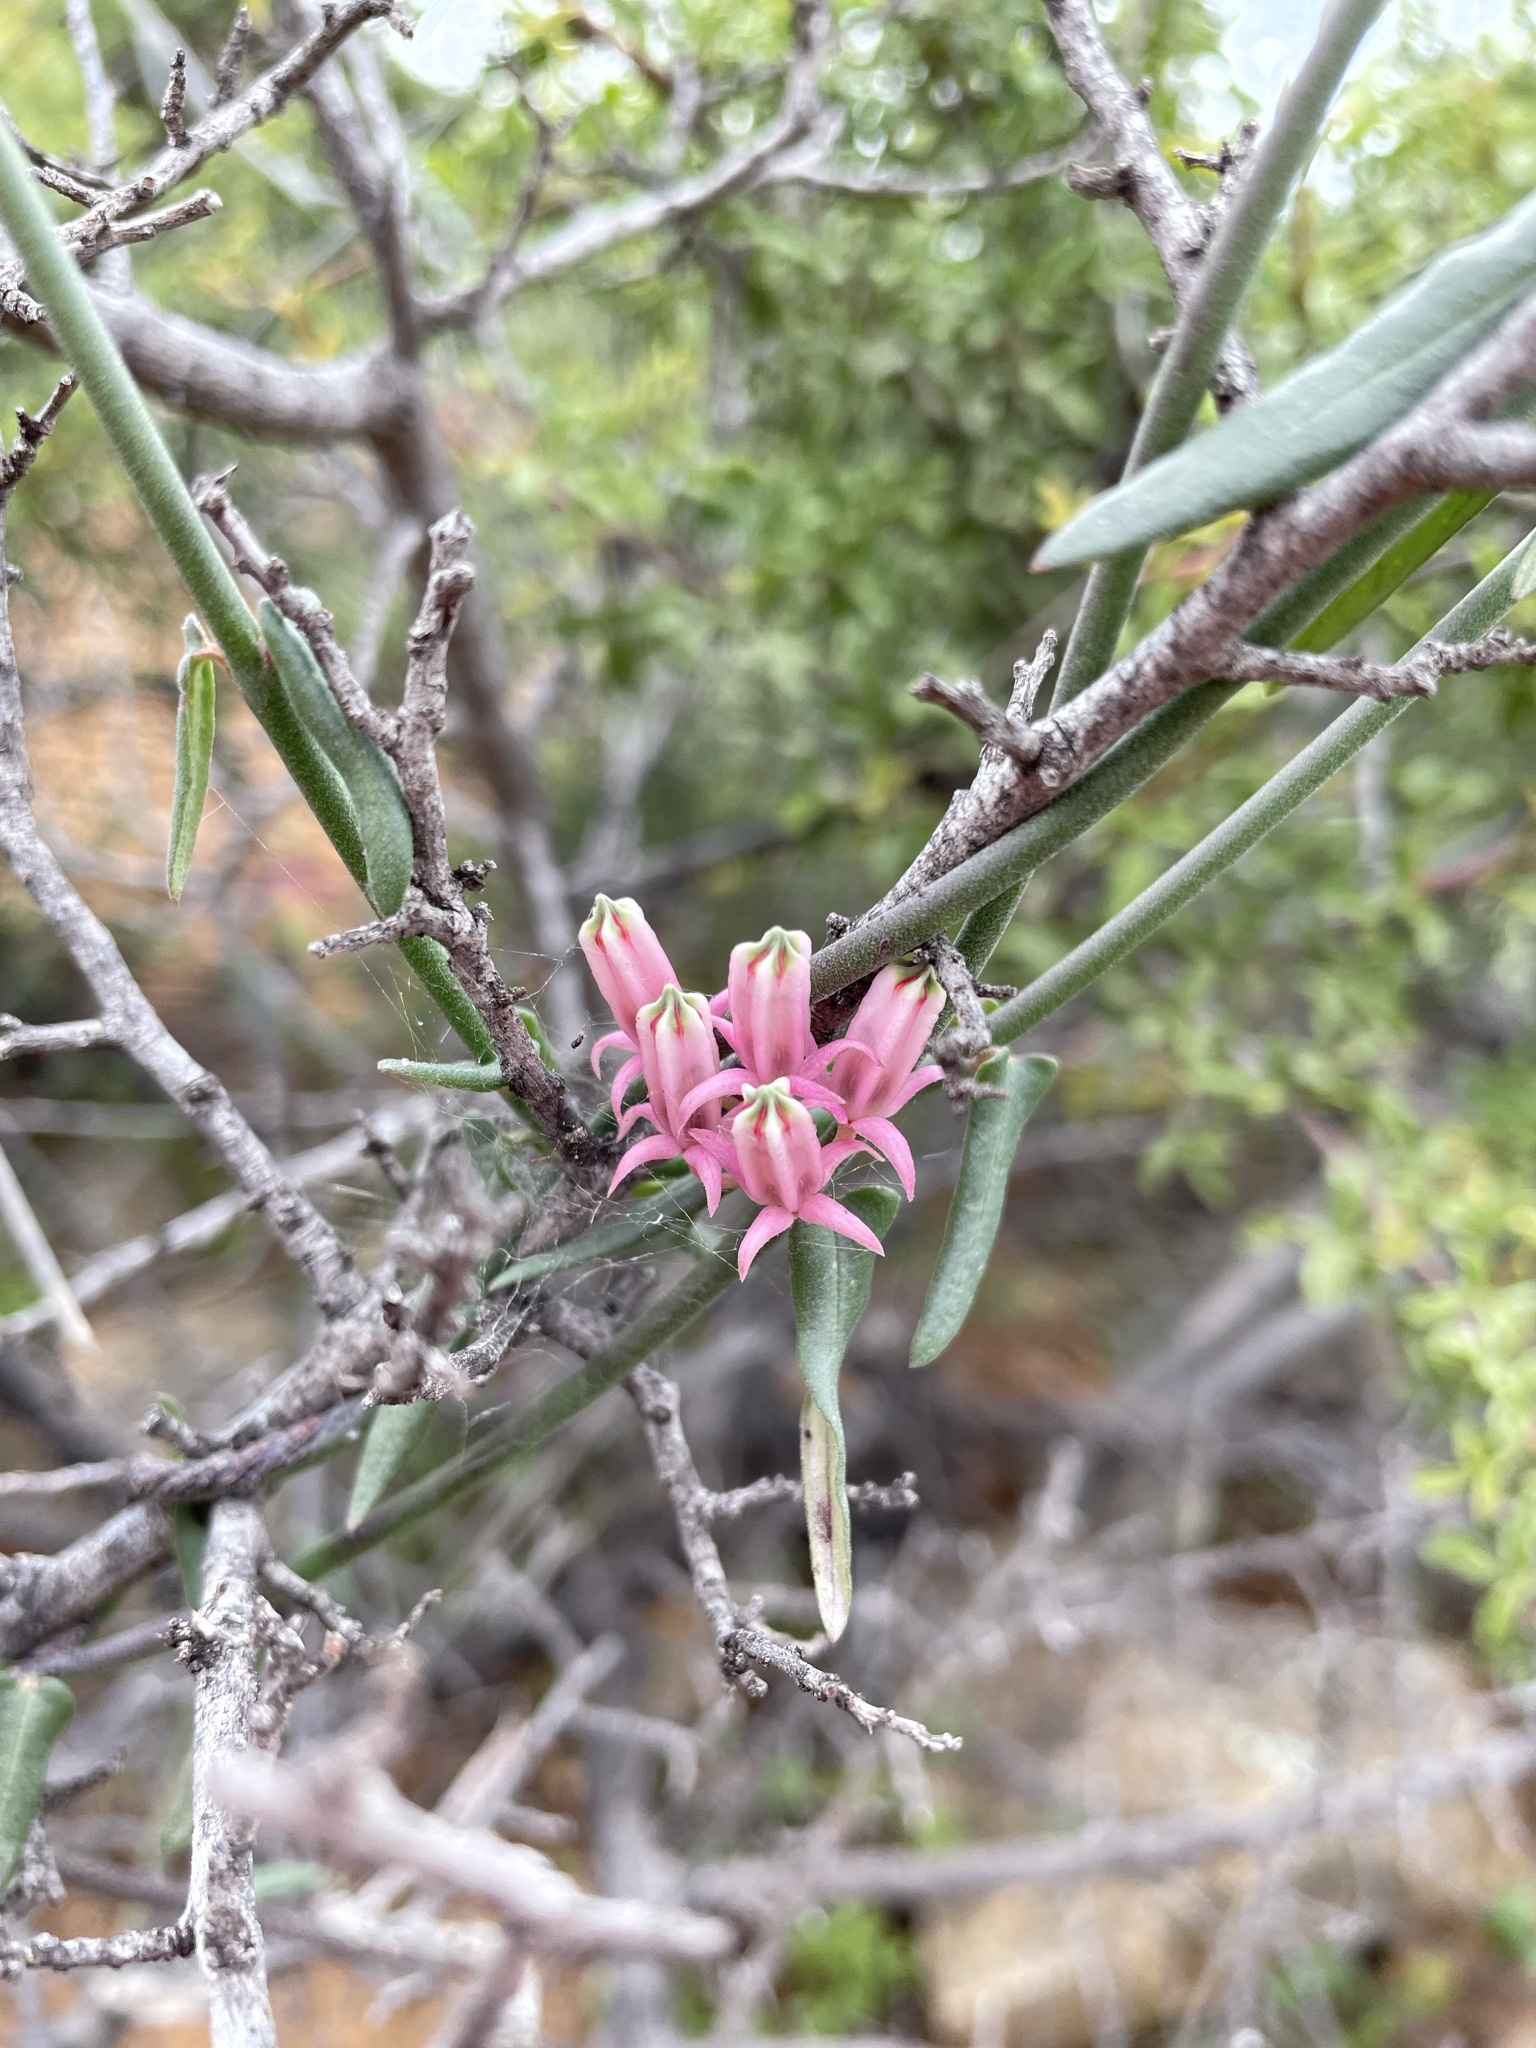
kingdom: Plantae
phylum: Tracheophyta
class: Magnoliopsida
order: Gentianales
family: Apocynaceae
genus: Microloma
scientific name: Microloma sagittatum
